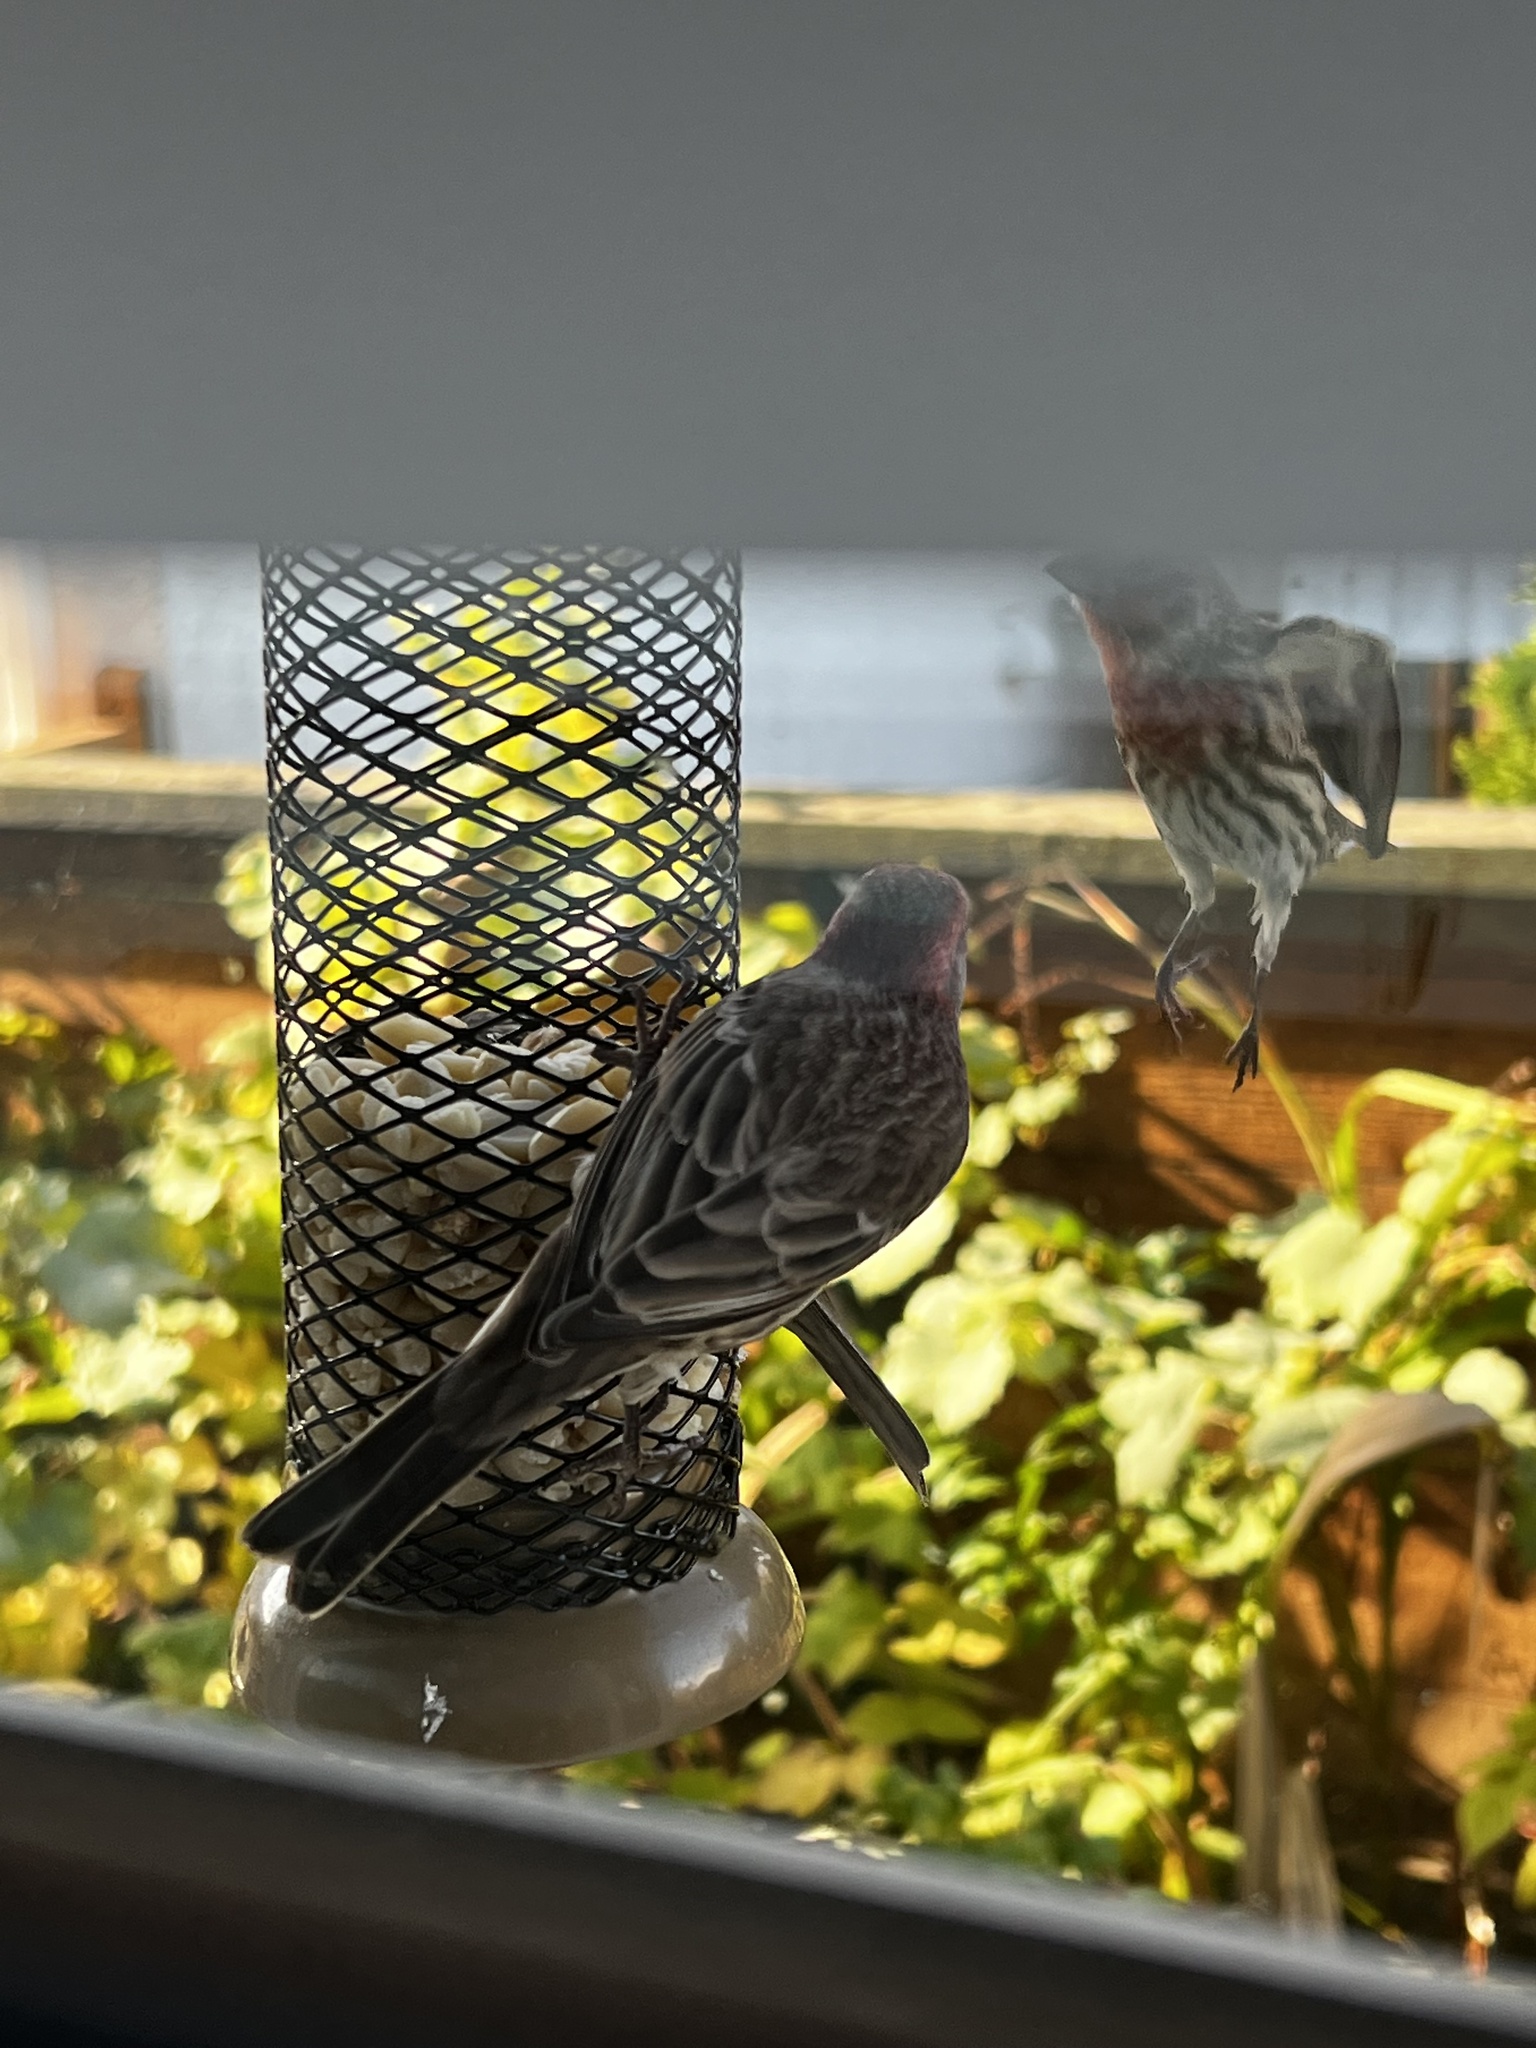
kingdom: Animalia
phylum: Chordata
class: Aves
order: Passeriformes
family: Fringillidae
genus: Haemorhous
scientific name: Haemorhous mexicanus
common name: House finch
